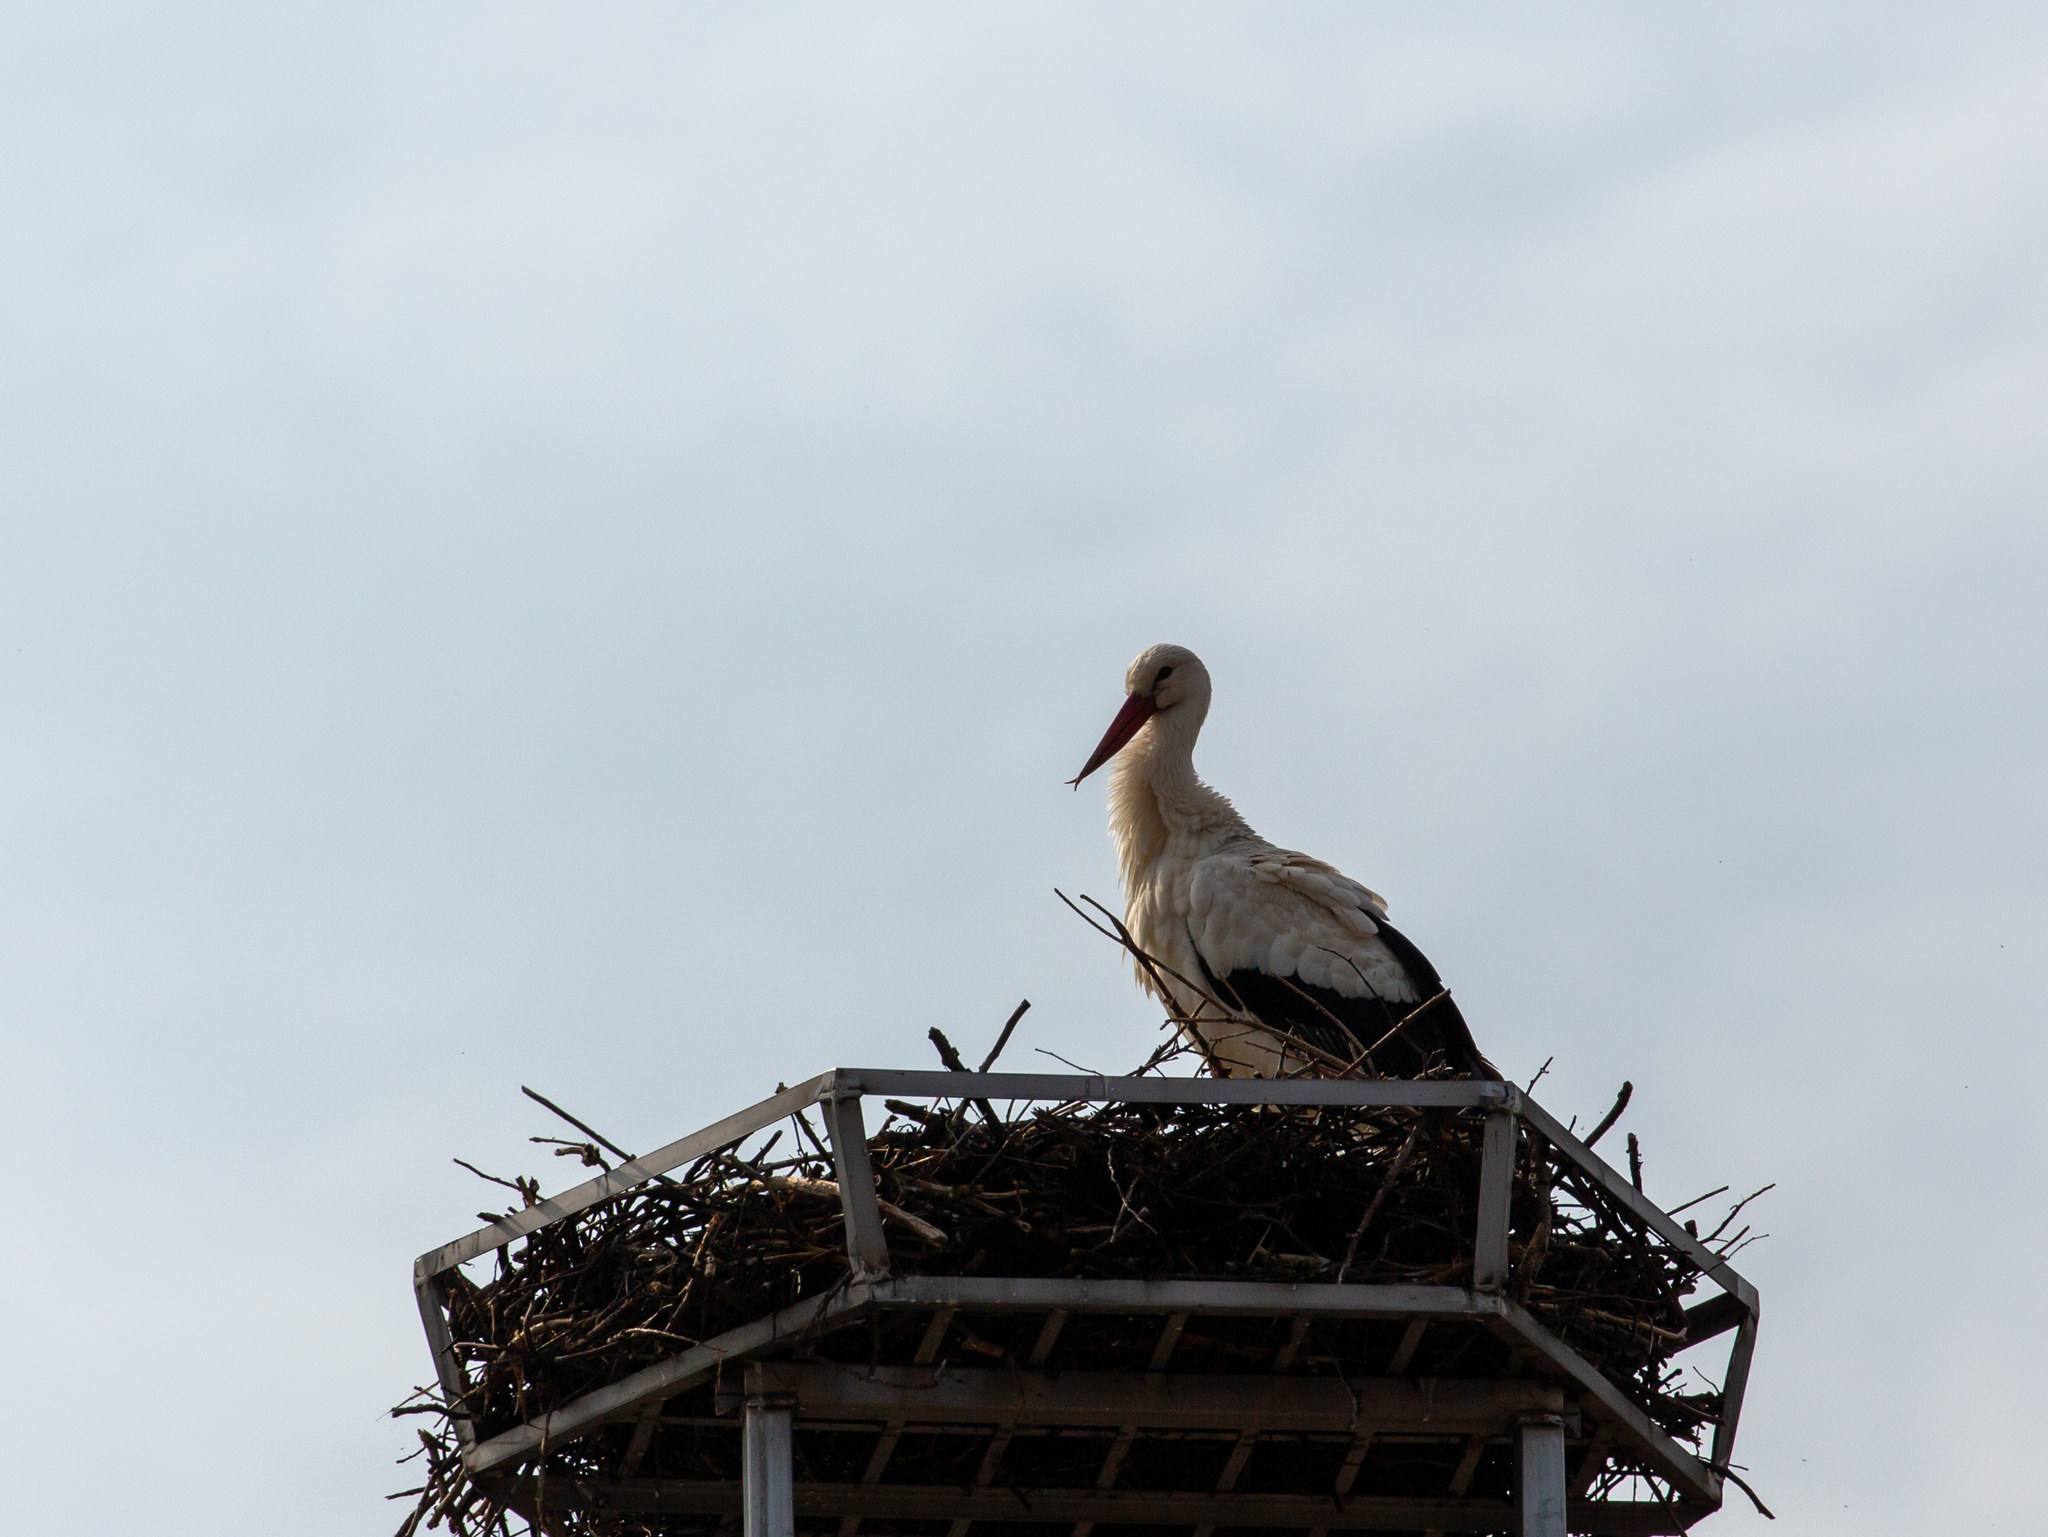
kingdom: Animalia
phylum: Chordata
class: Aves
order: Ciconiiformes
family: Ciconiidae
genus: Ciconia
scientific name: Ciconia ciconia
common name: White stork
